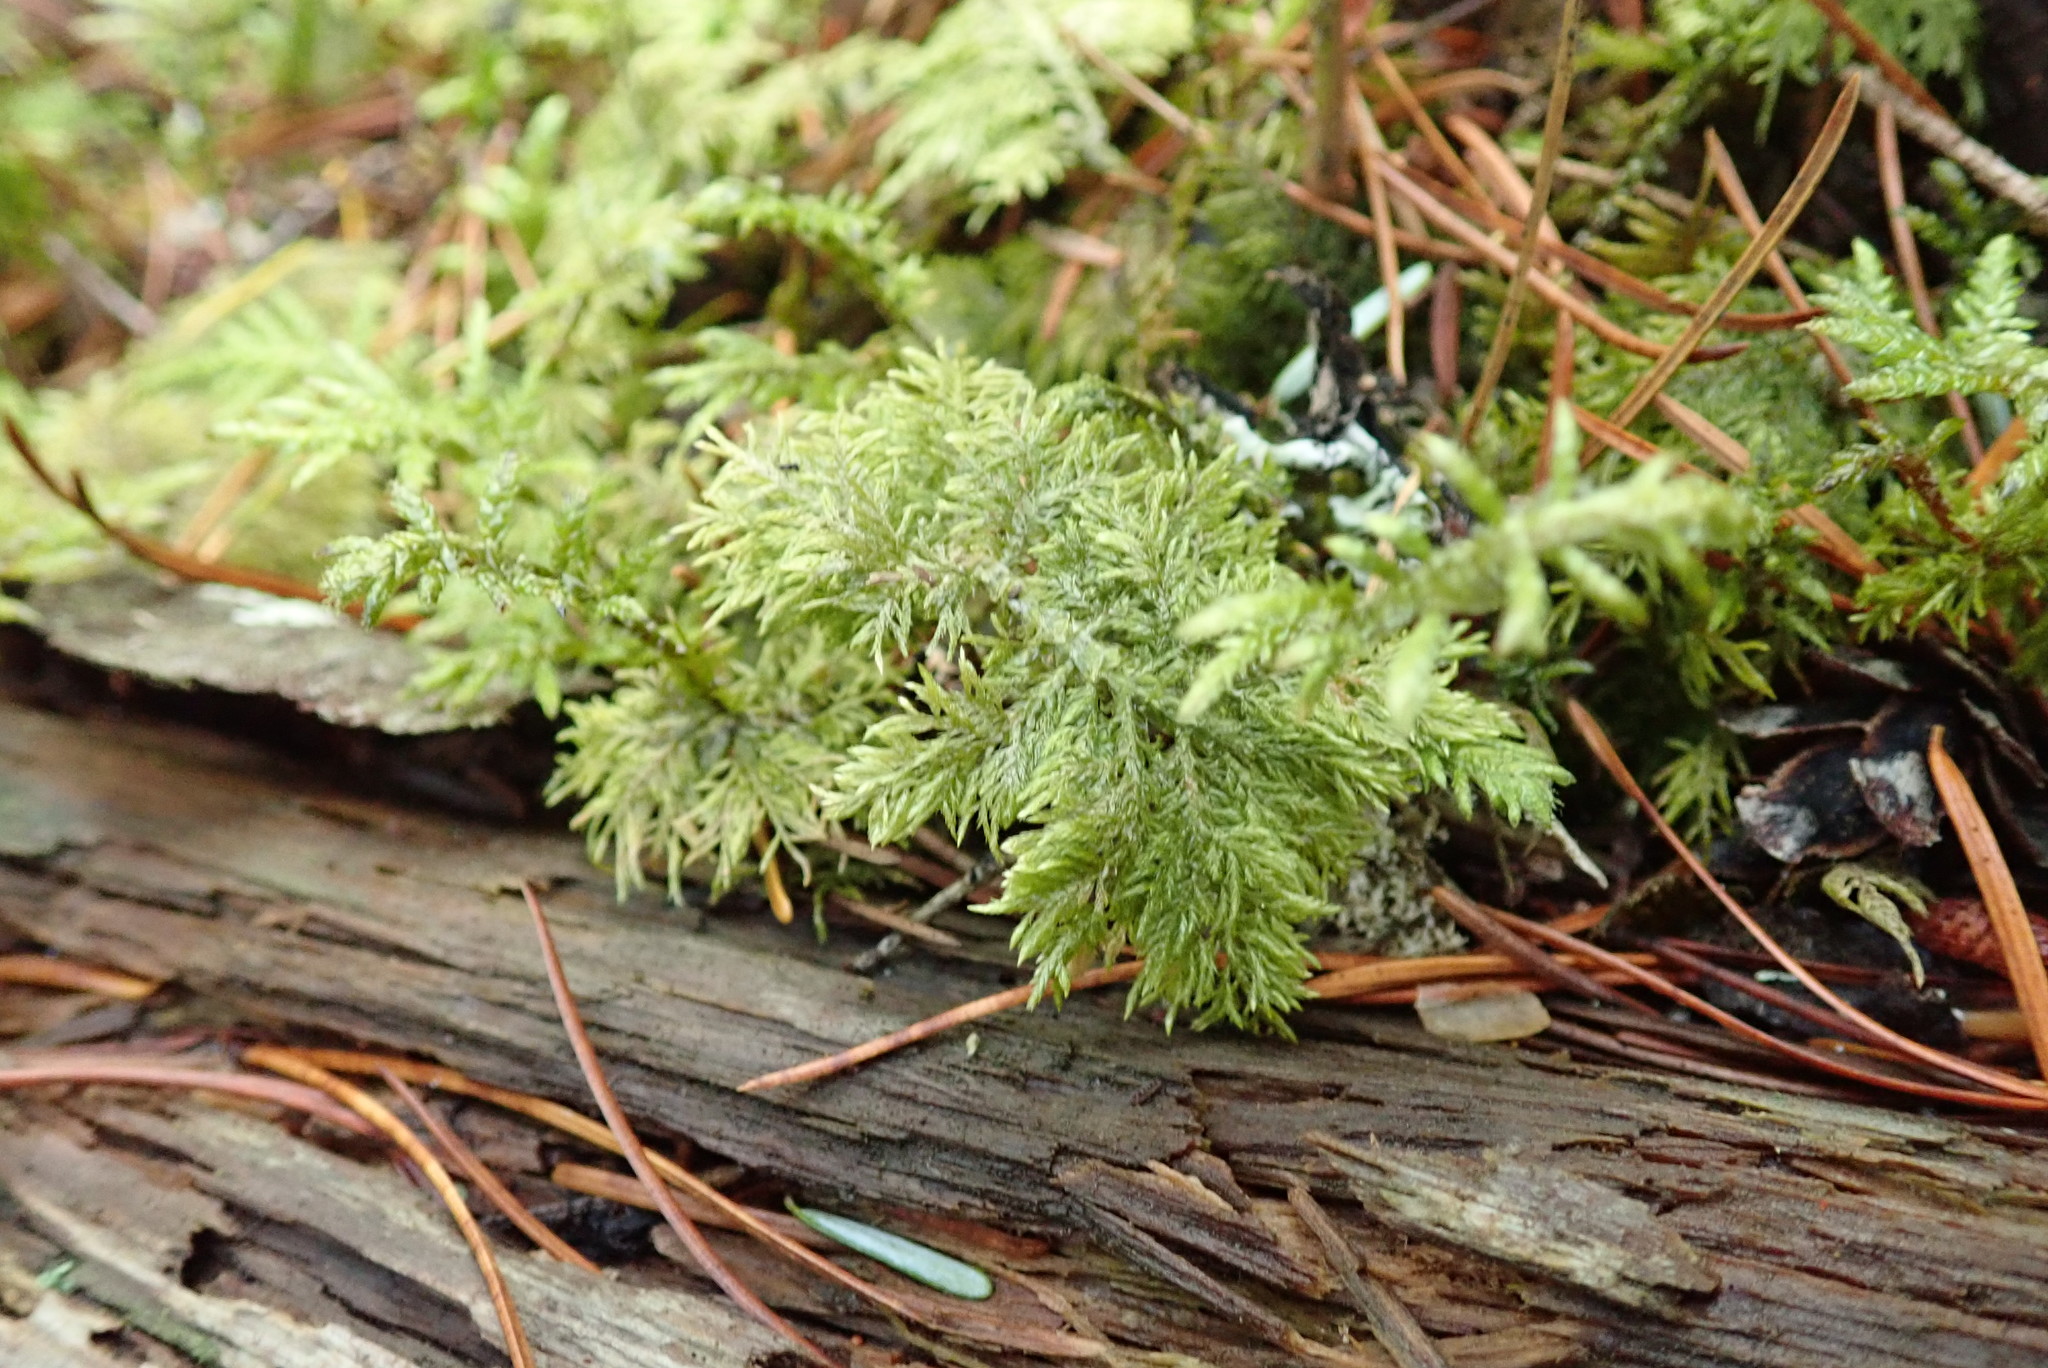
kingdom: Plantae
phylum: Bryophyta
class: Bryopsida
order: Hypnales
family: Hylocomiaceae
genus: Hylocomium
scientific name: Hylocomium splendens
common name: Stairstep moss
